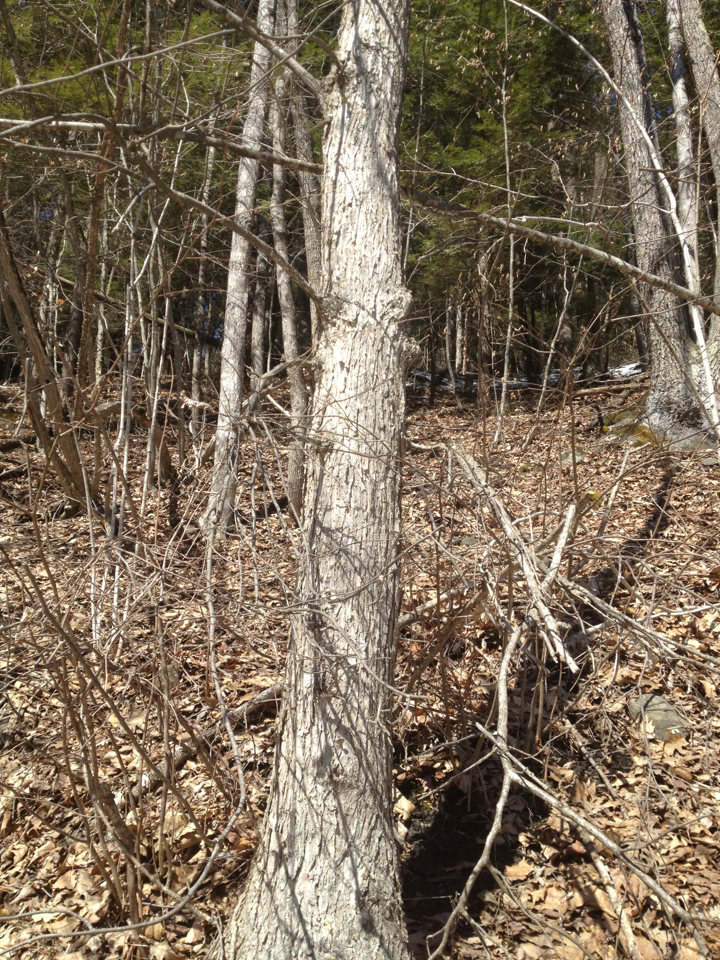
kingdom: Plantae
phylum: Tracheophyta
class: Magnoliopsida
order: Fagales
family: Betulaceae
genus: Ostrya
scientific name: Ostrya virginiana
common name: Ironwood
